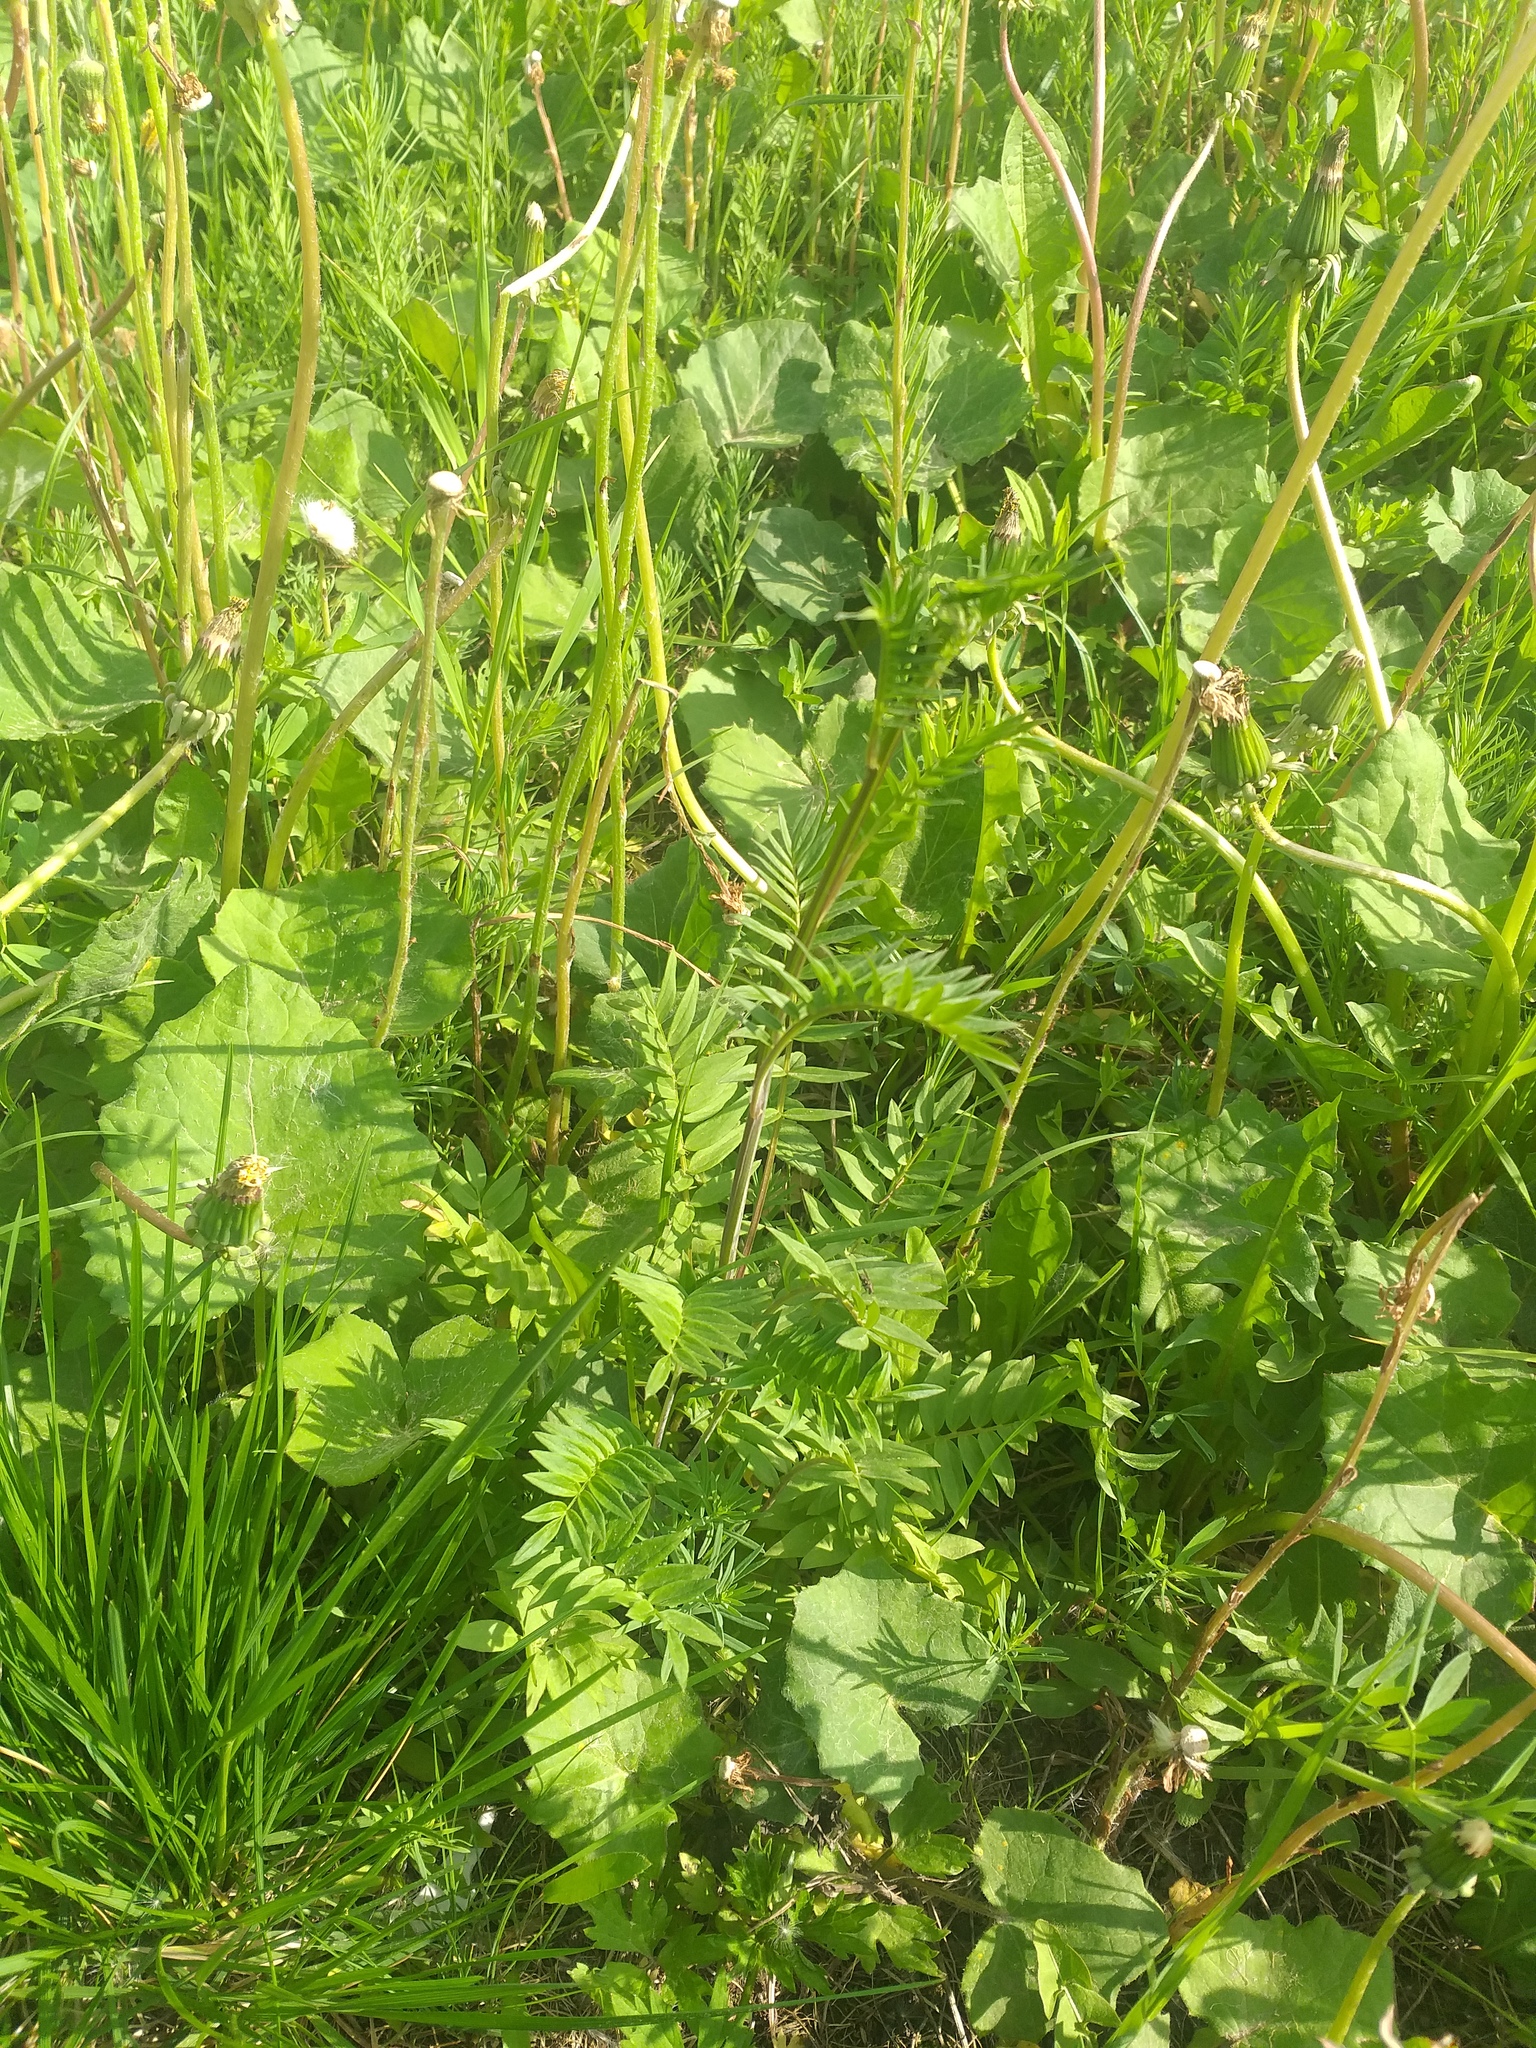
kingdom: Plantae
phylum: Tracheophyta
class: Magnoliopsida
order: Ericales
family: Polemoniaceae
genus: Polemonium
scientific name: Polemonium caeruleum
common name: Jacob's-ladder
